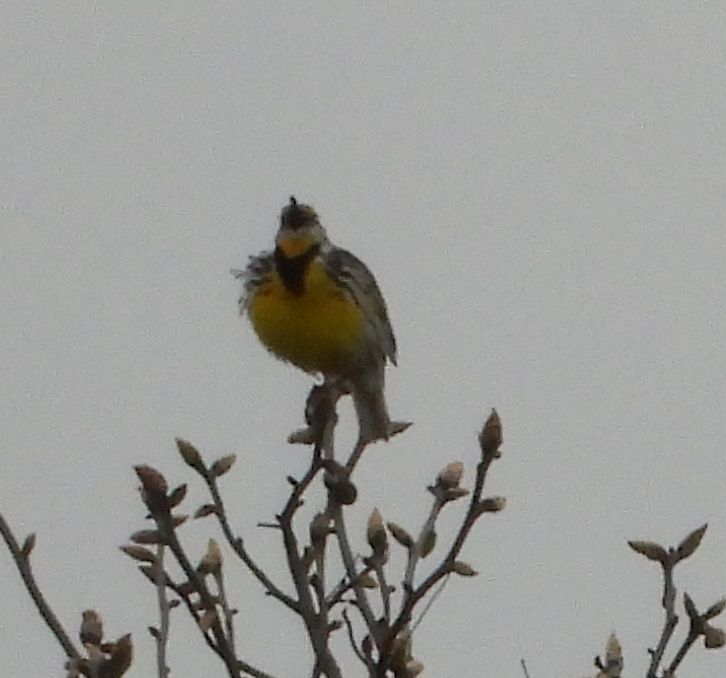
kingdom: Animalia
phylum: Chordata
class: Aves
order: Passeriformes
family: Icteridae
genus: Sturnella
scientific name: Sturnella magna
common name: Eastern meadowlark
